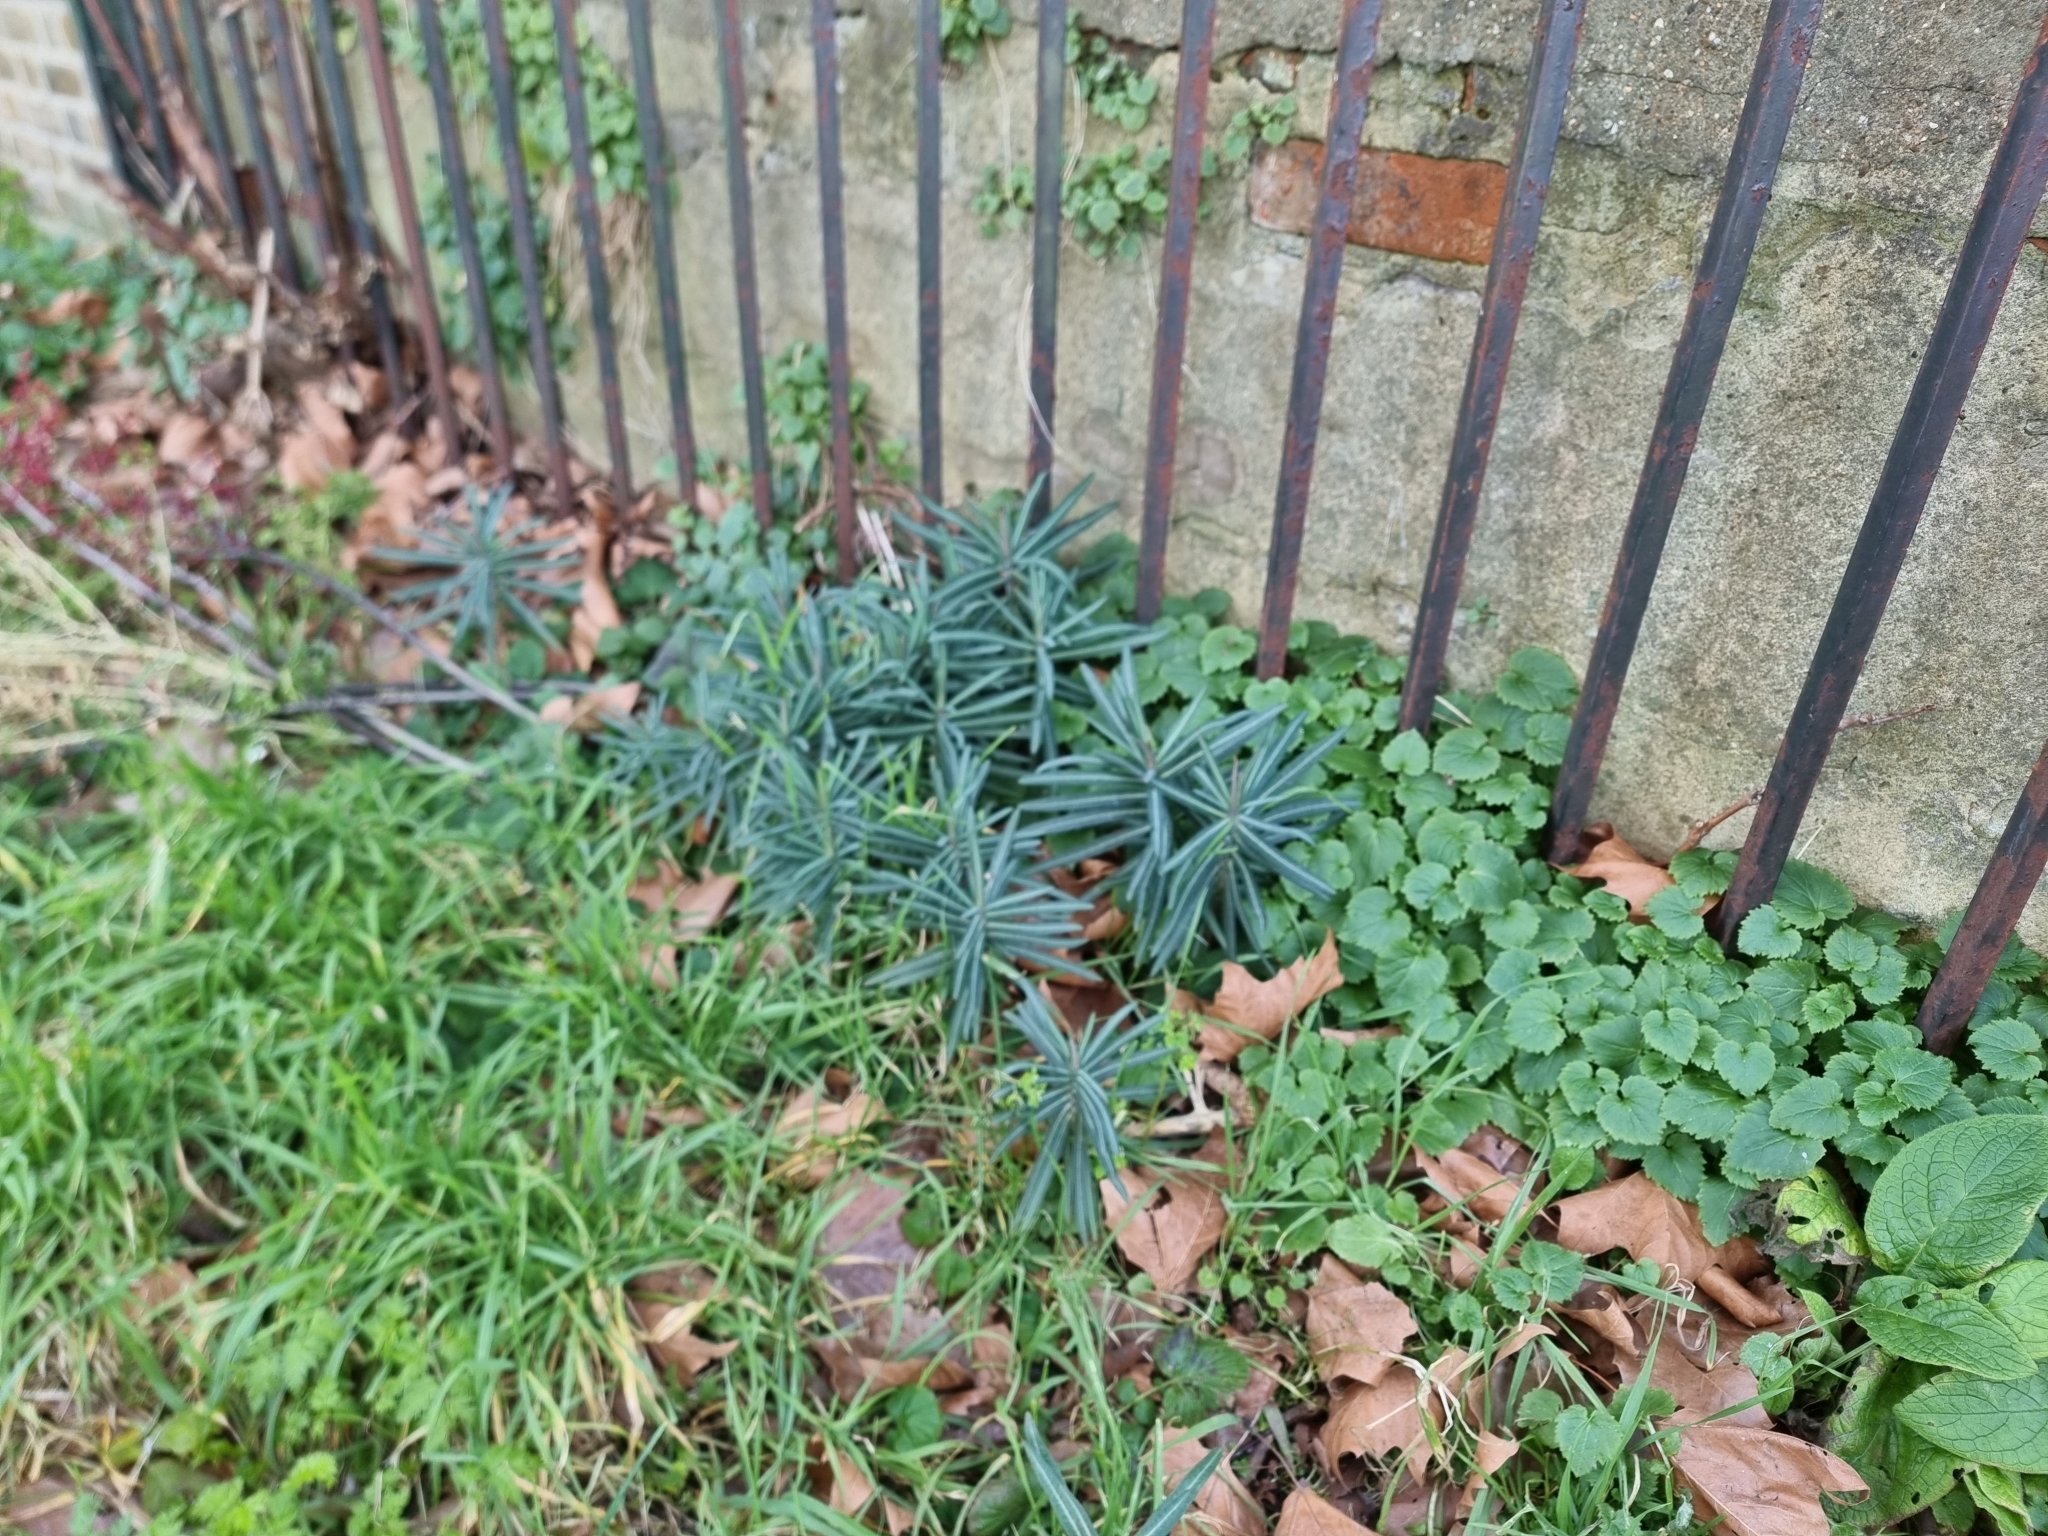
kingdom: Plantae
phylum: Tracheophyta
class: Magnoliopsida
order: Malpighiales
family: Euphorbiaceae
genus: Euphorbia
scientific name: Euphorbia lathyris
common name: Caper spurge
